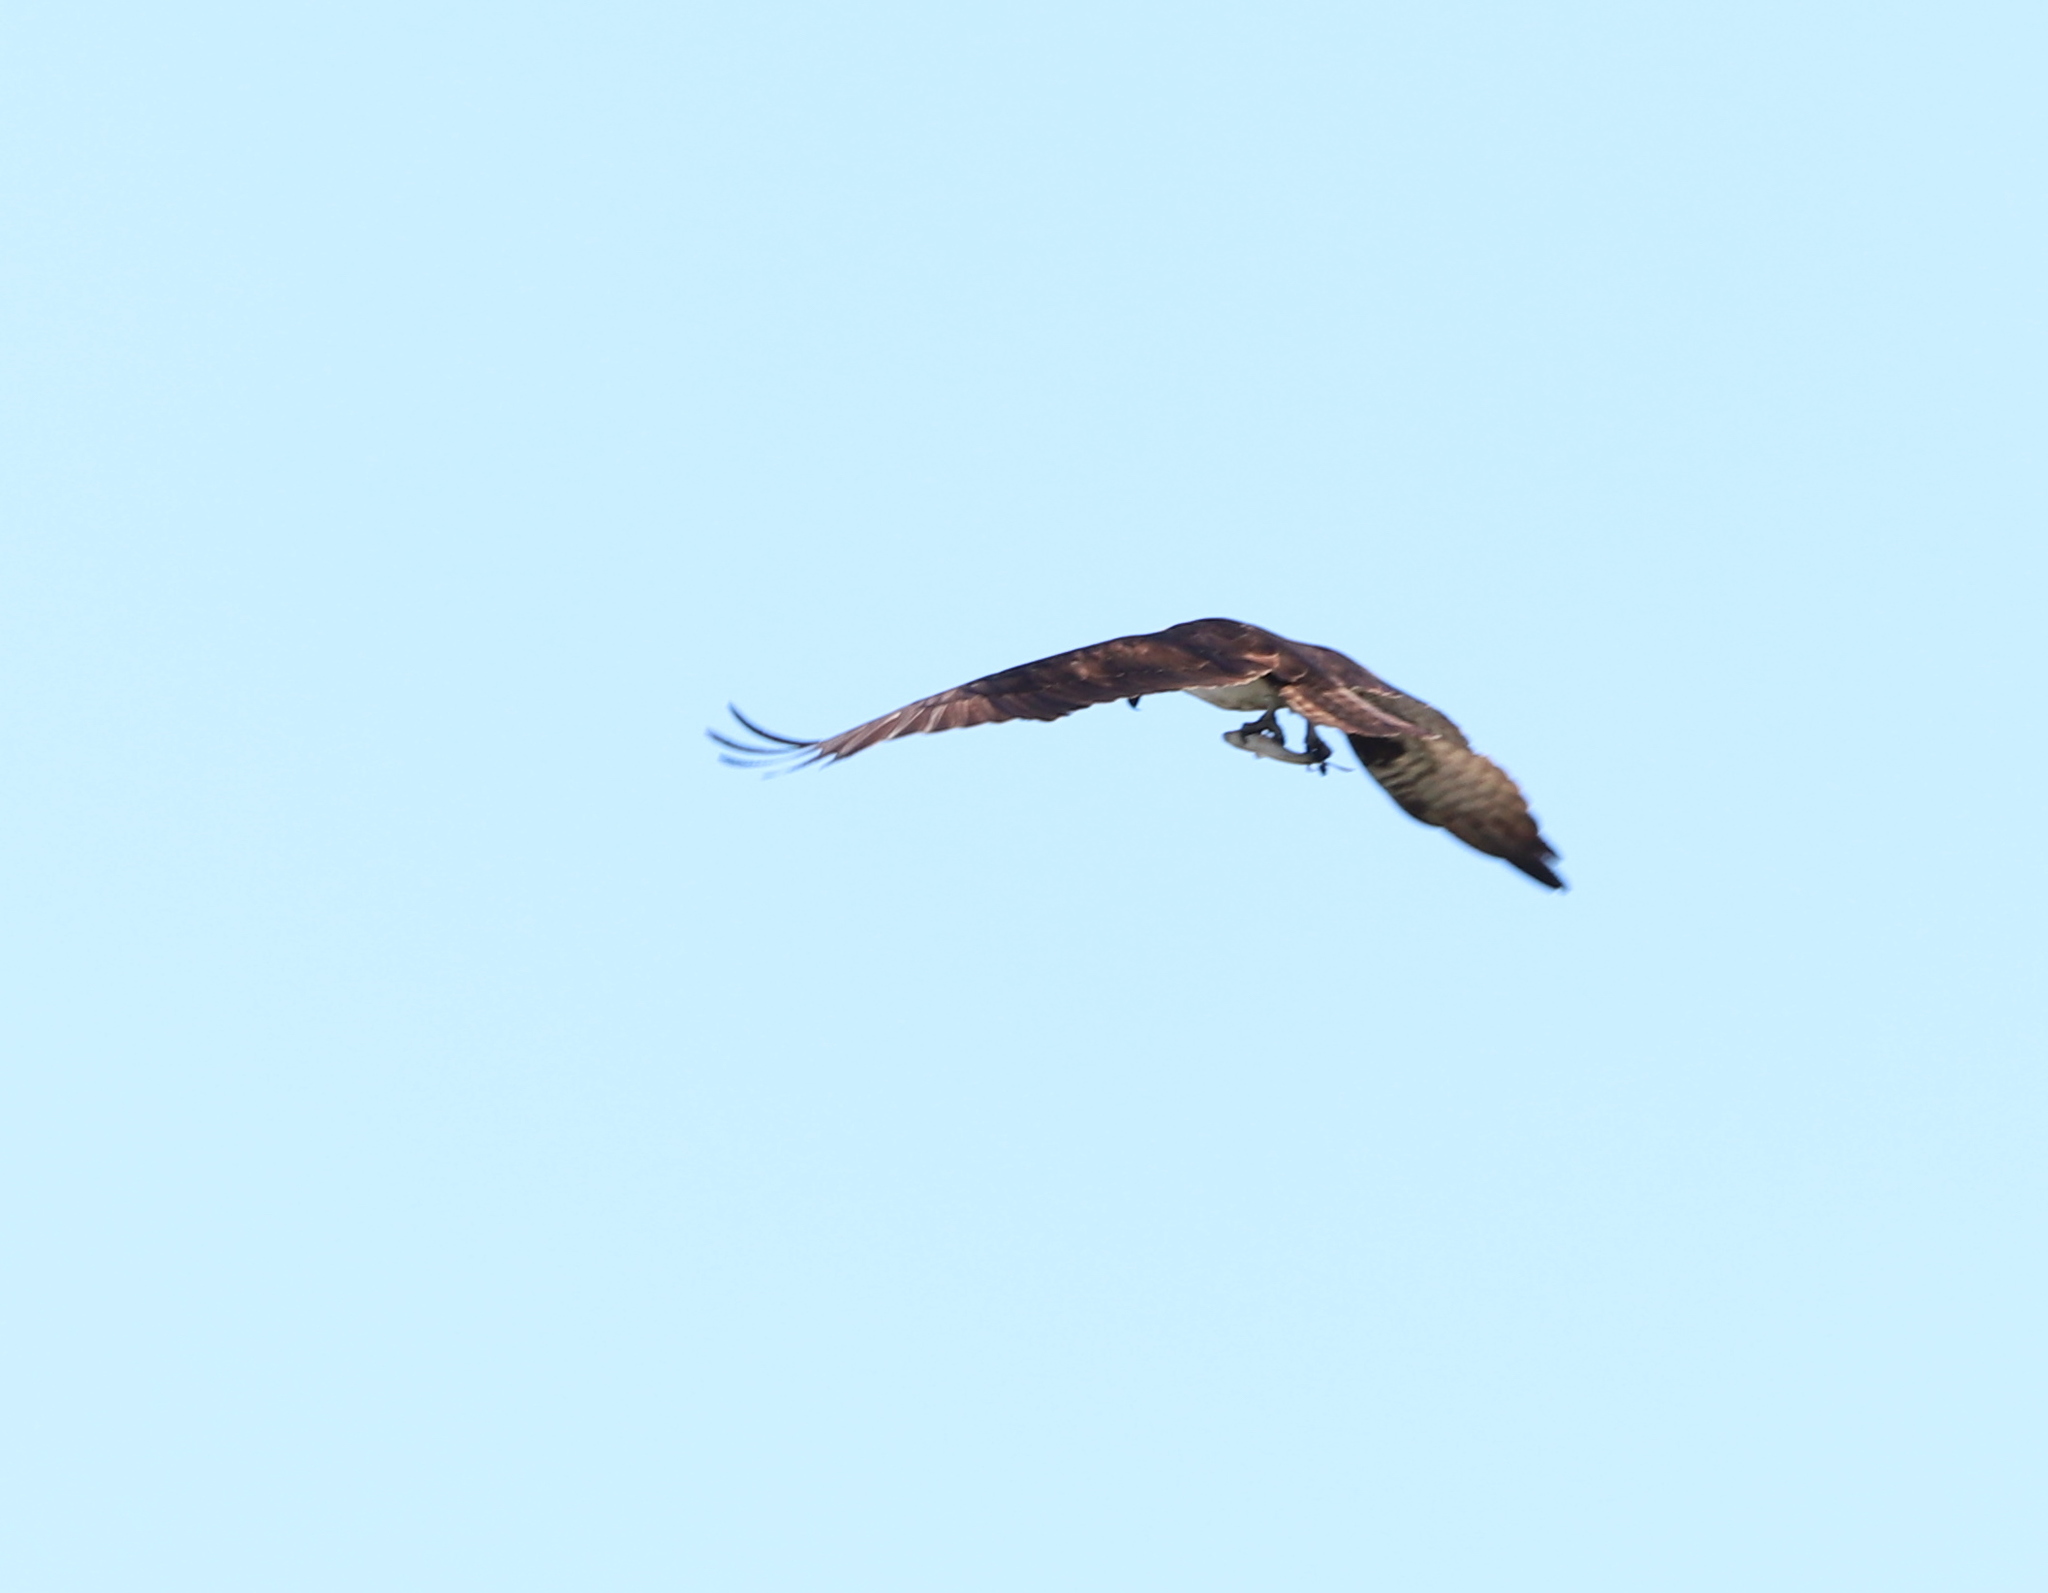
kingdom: Animalia
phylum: Chordata
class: Aves
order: Accipitriformes
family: Pandionidae
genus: Pandion
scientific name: Pandion haliaetus
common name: Osprey
